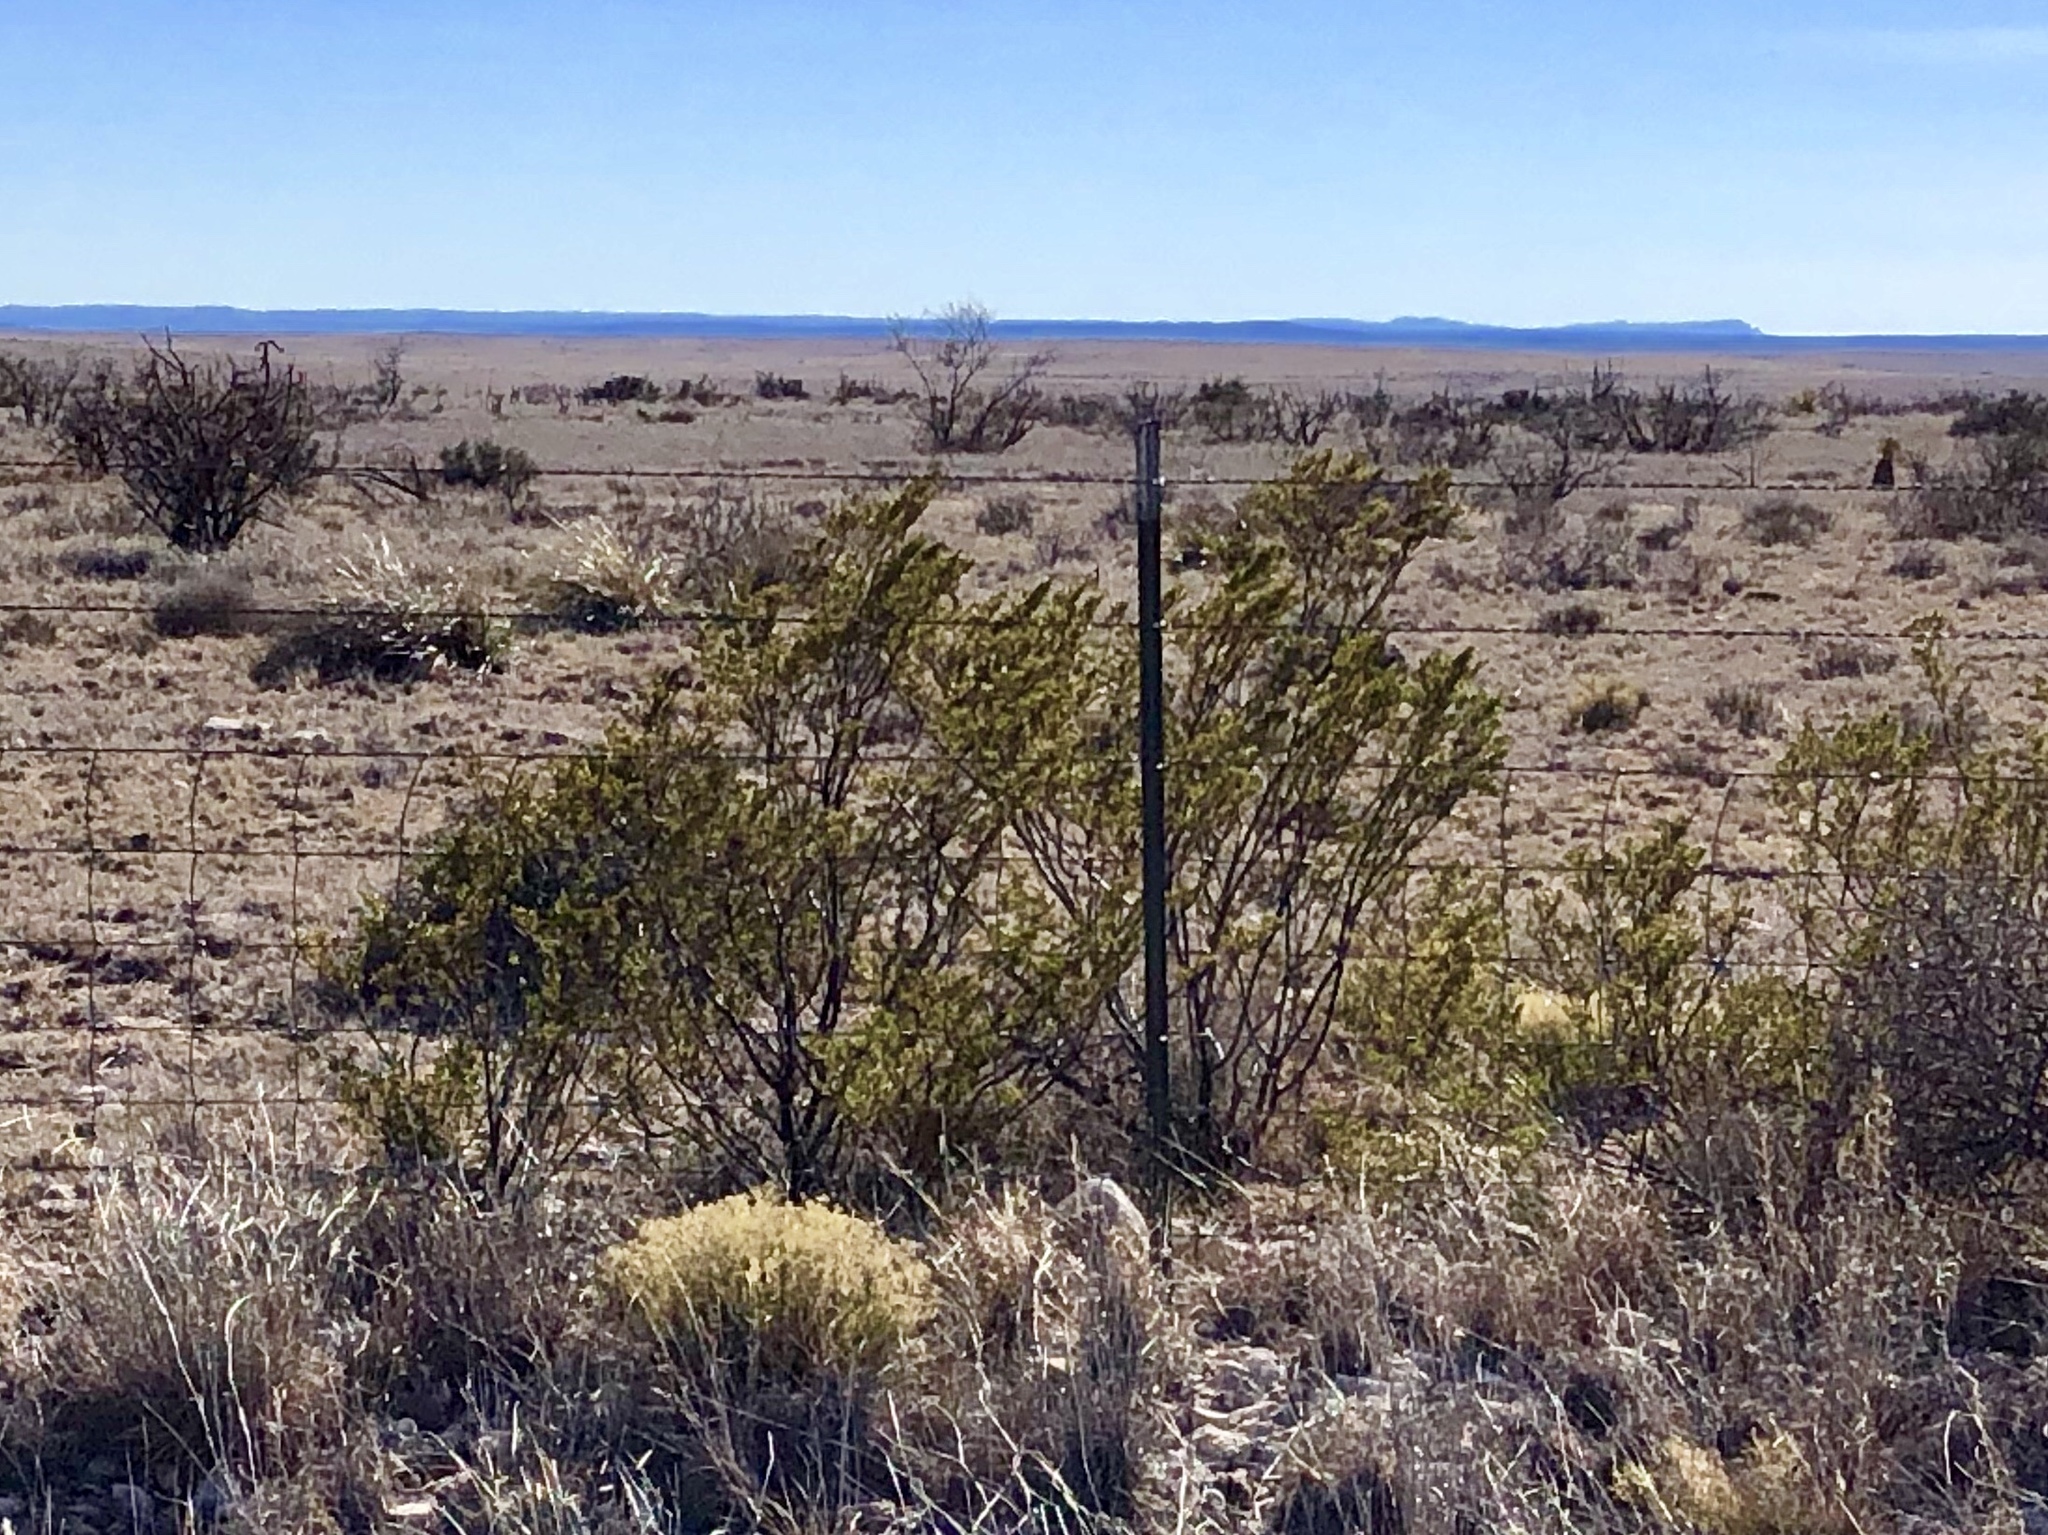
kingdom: Plantae
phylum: Tracheophyta
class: Magnoliopsida
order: Zygophyllales
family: Zygophyllaceae
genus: Larrea
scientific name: Larrea tridentata
